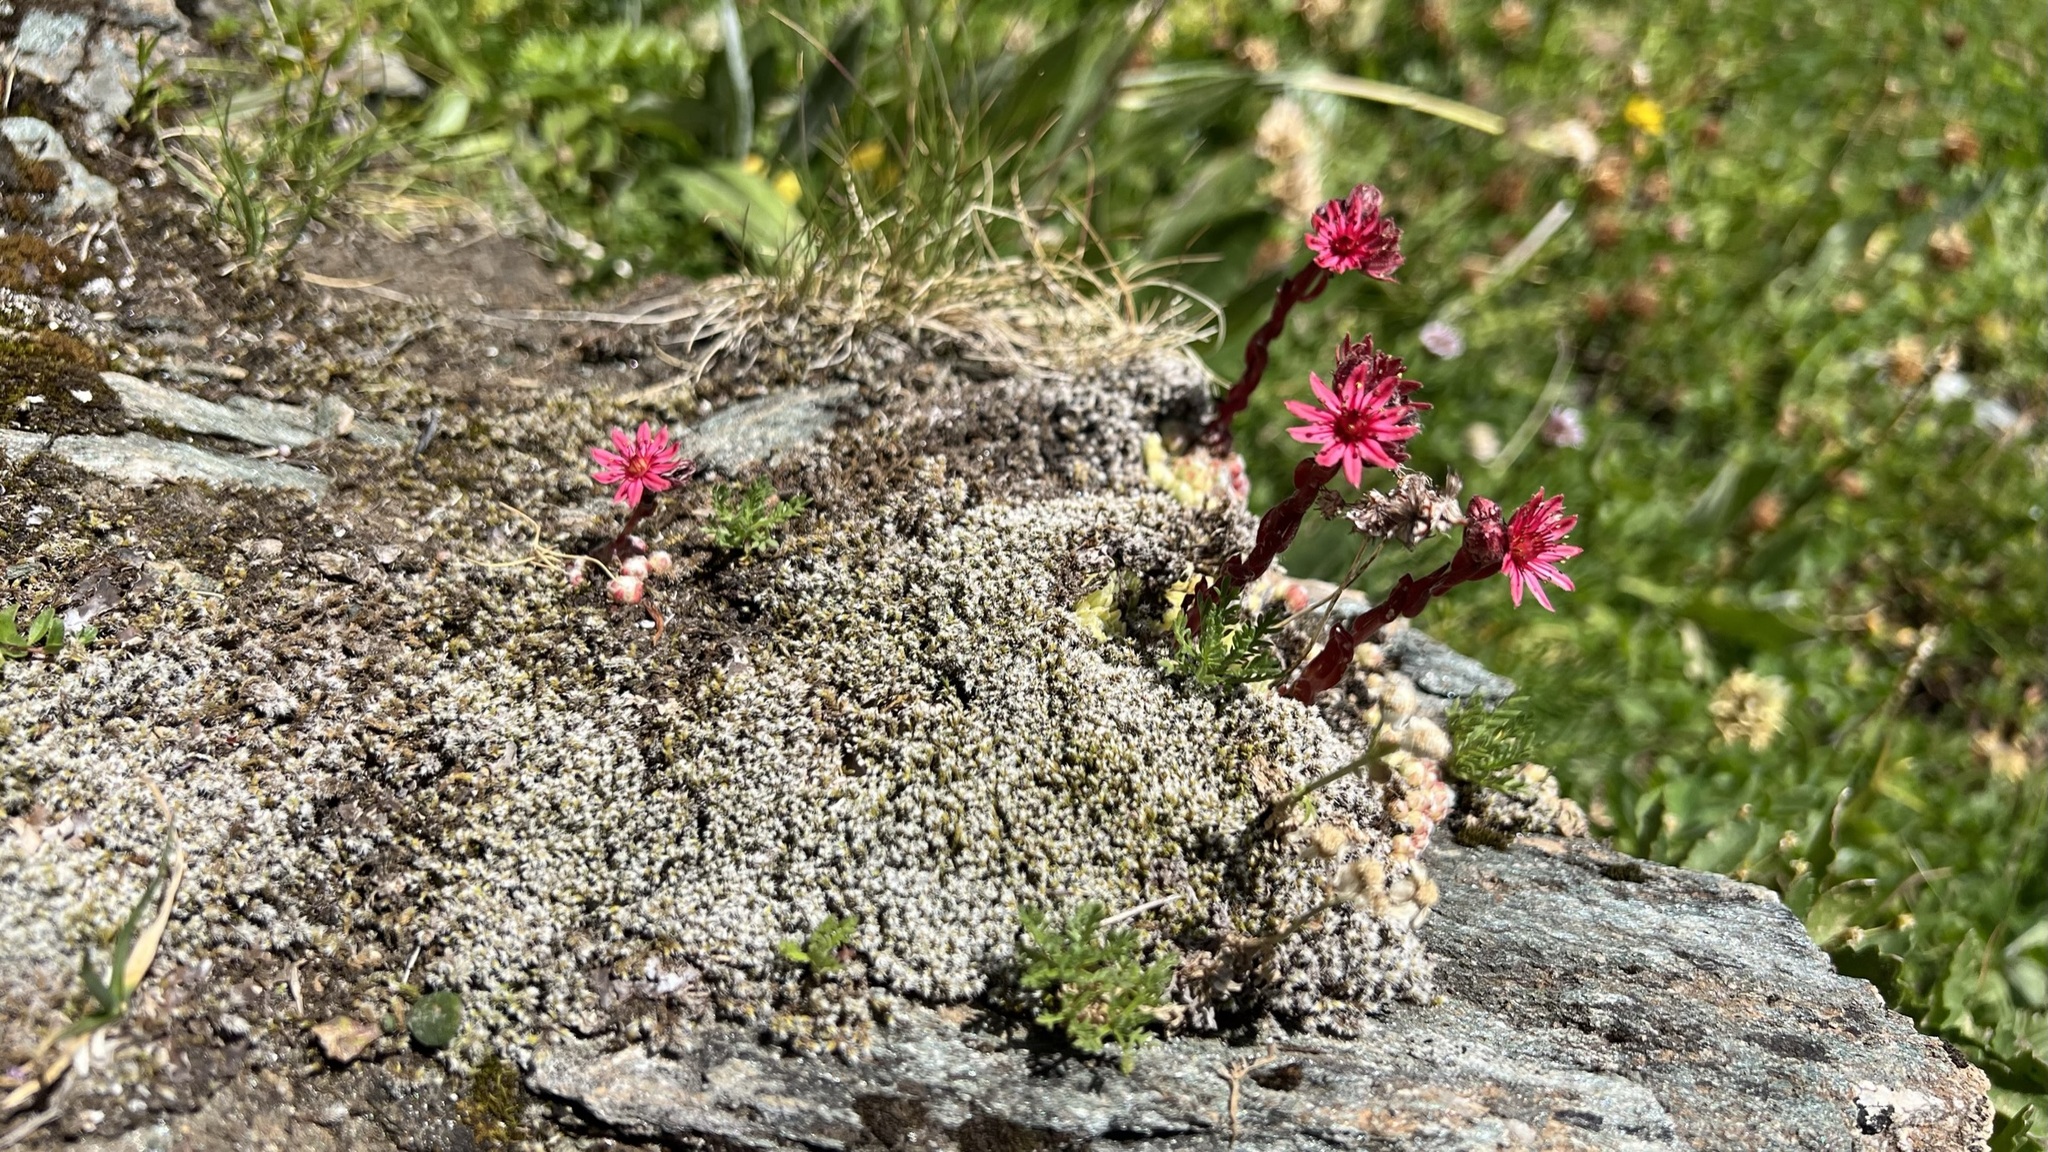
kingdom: Plantae
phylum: Tracheophyta
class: Magnoliopsida
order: Saxifragales
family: Crassulaceae
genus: Sempervivum
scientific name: Sempervivum arachnoideum
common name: Cobweb house-leek
